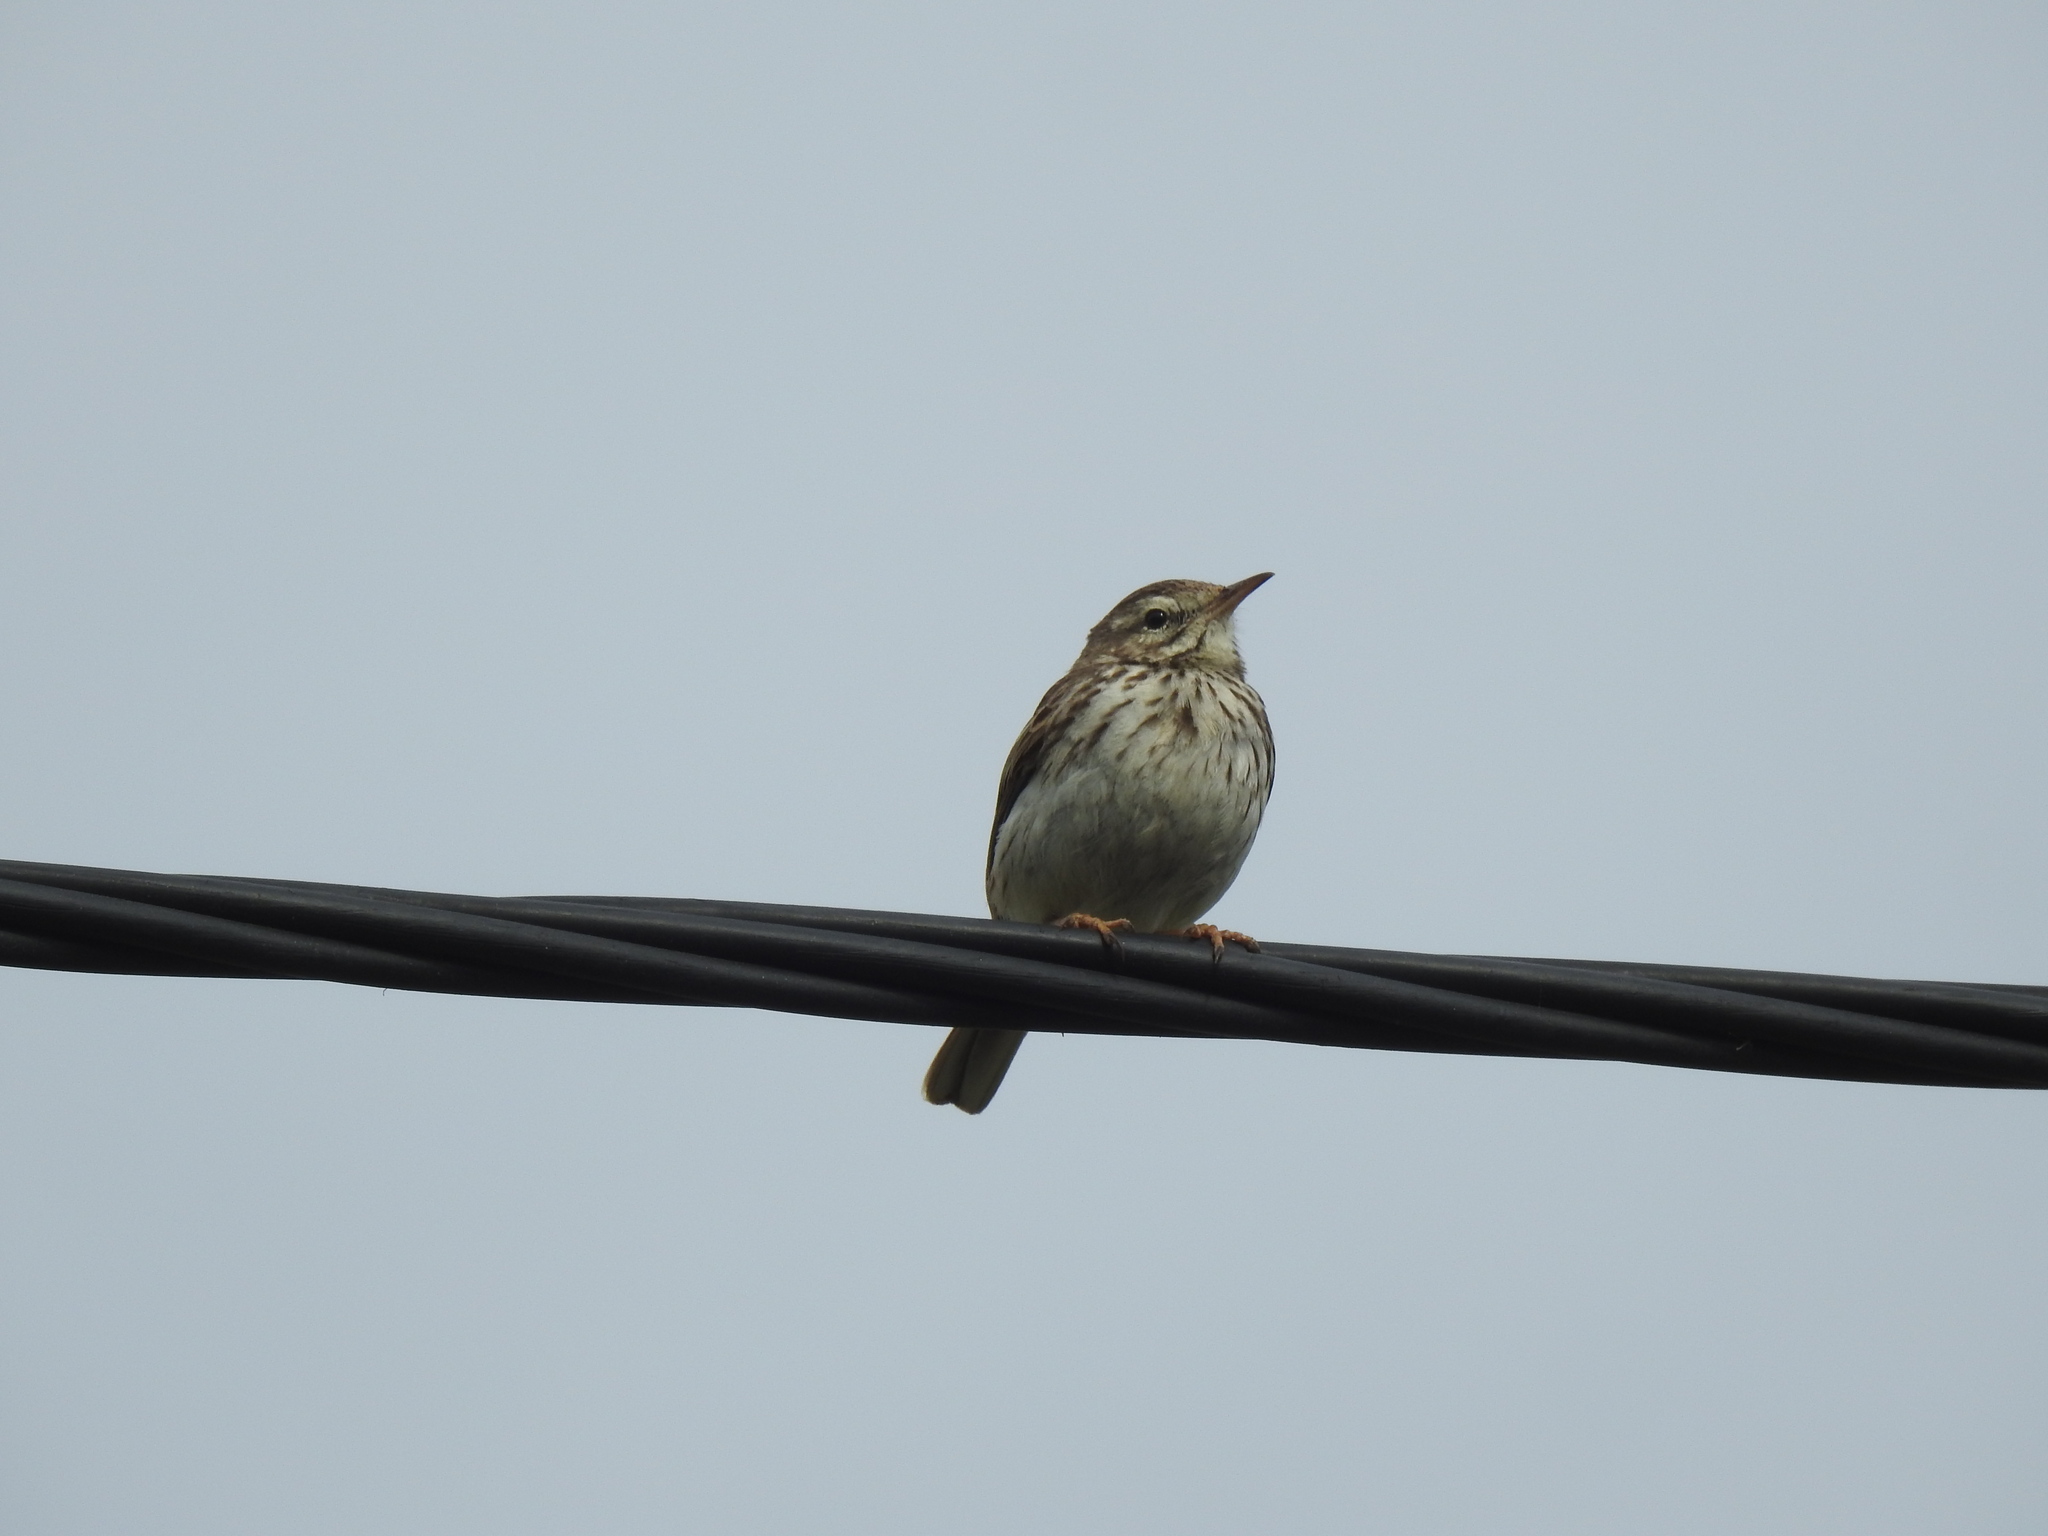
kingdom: Animalia
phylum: Chordata
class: Aves
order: Passeriformes
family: Motacillidae
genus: Anthus
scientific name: Anthus berthelotii
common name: Berthelot's pipit
